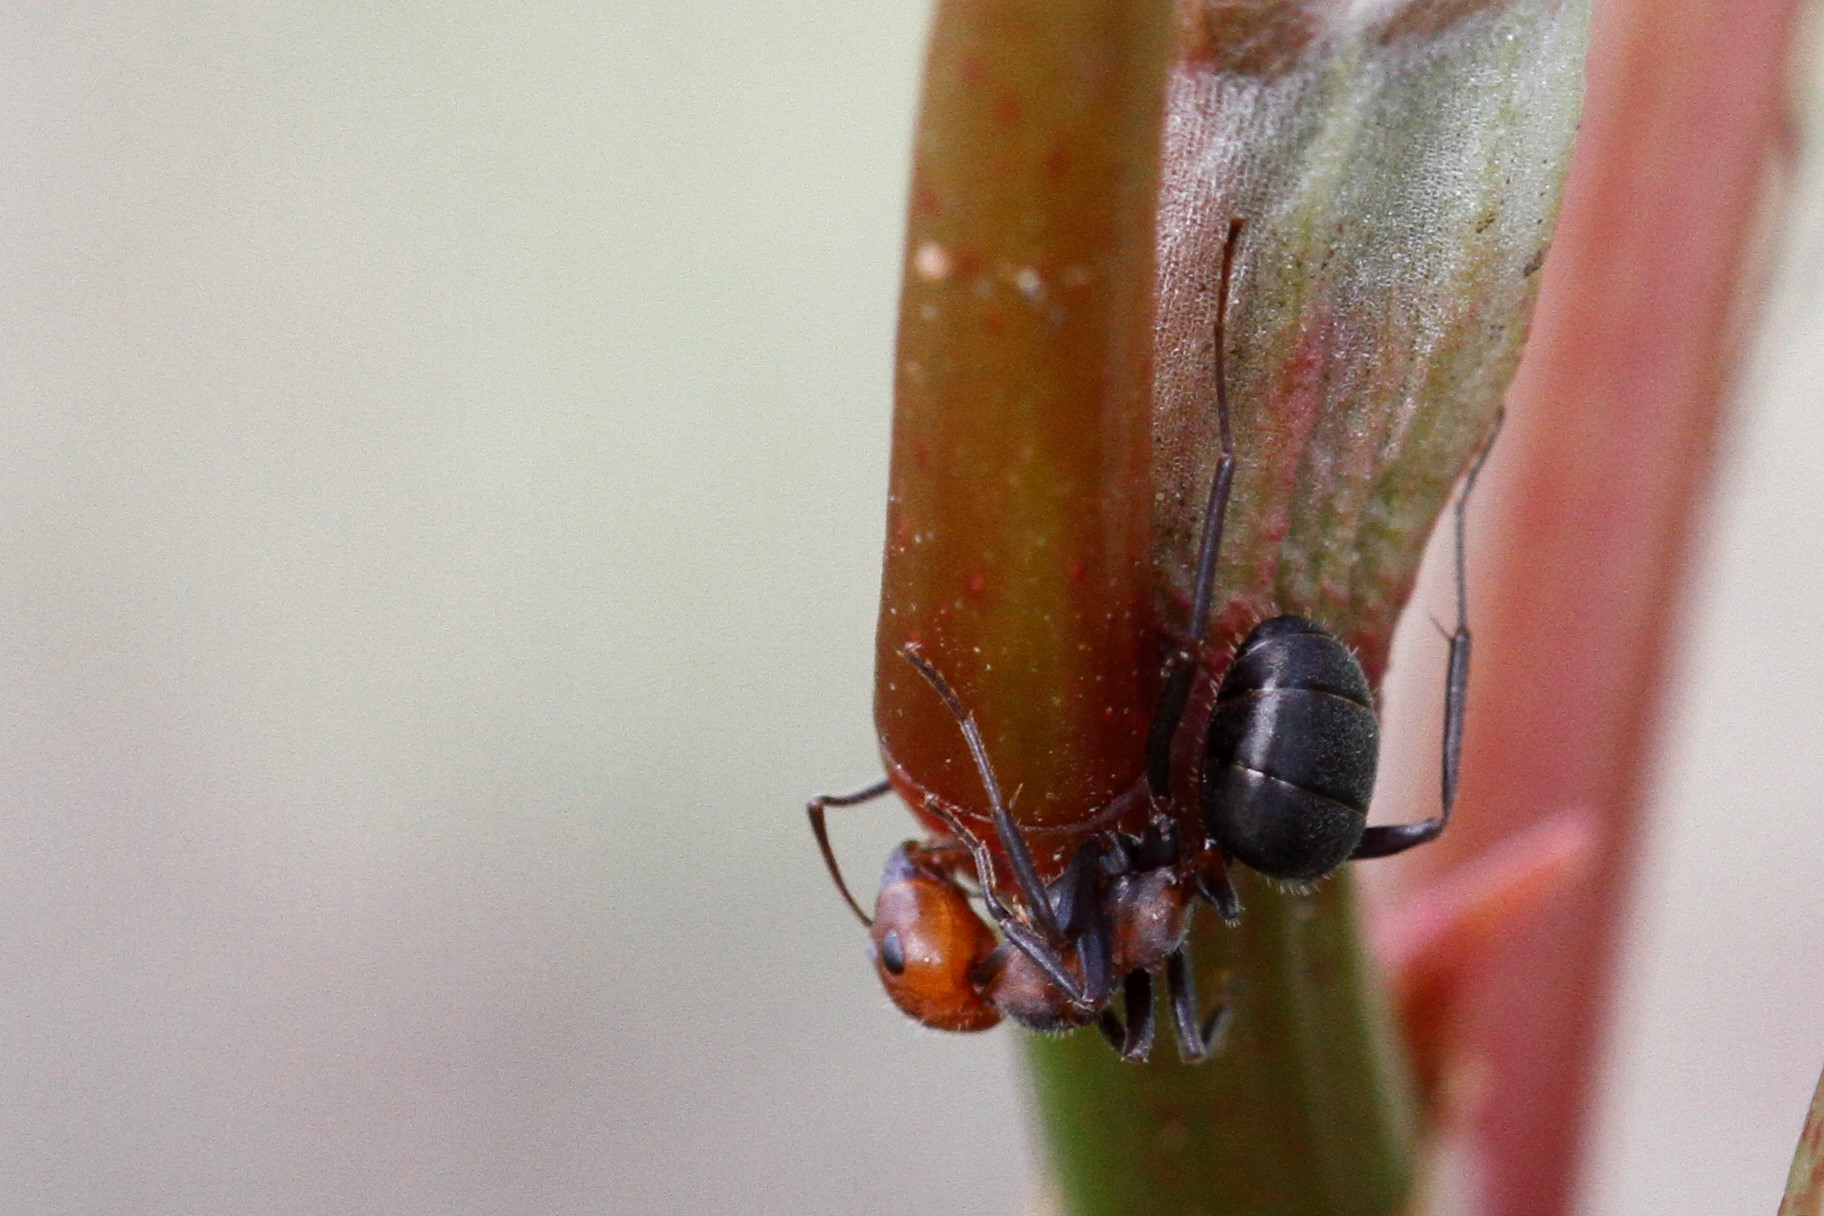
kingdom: Animalia
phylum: Arthropoda
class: Insecta
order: Hymenoptera
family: Formicidae
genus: Formica
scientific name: Formica obscuripes
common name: Western thatching ant
